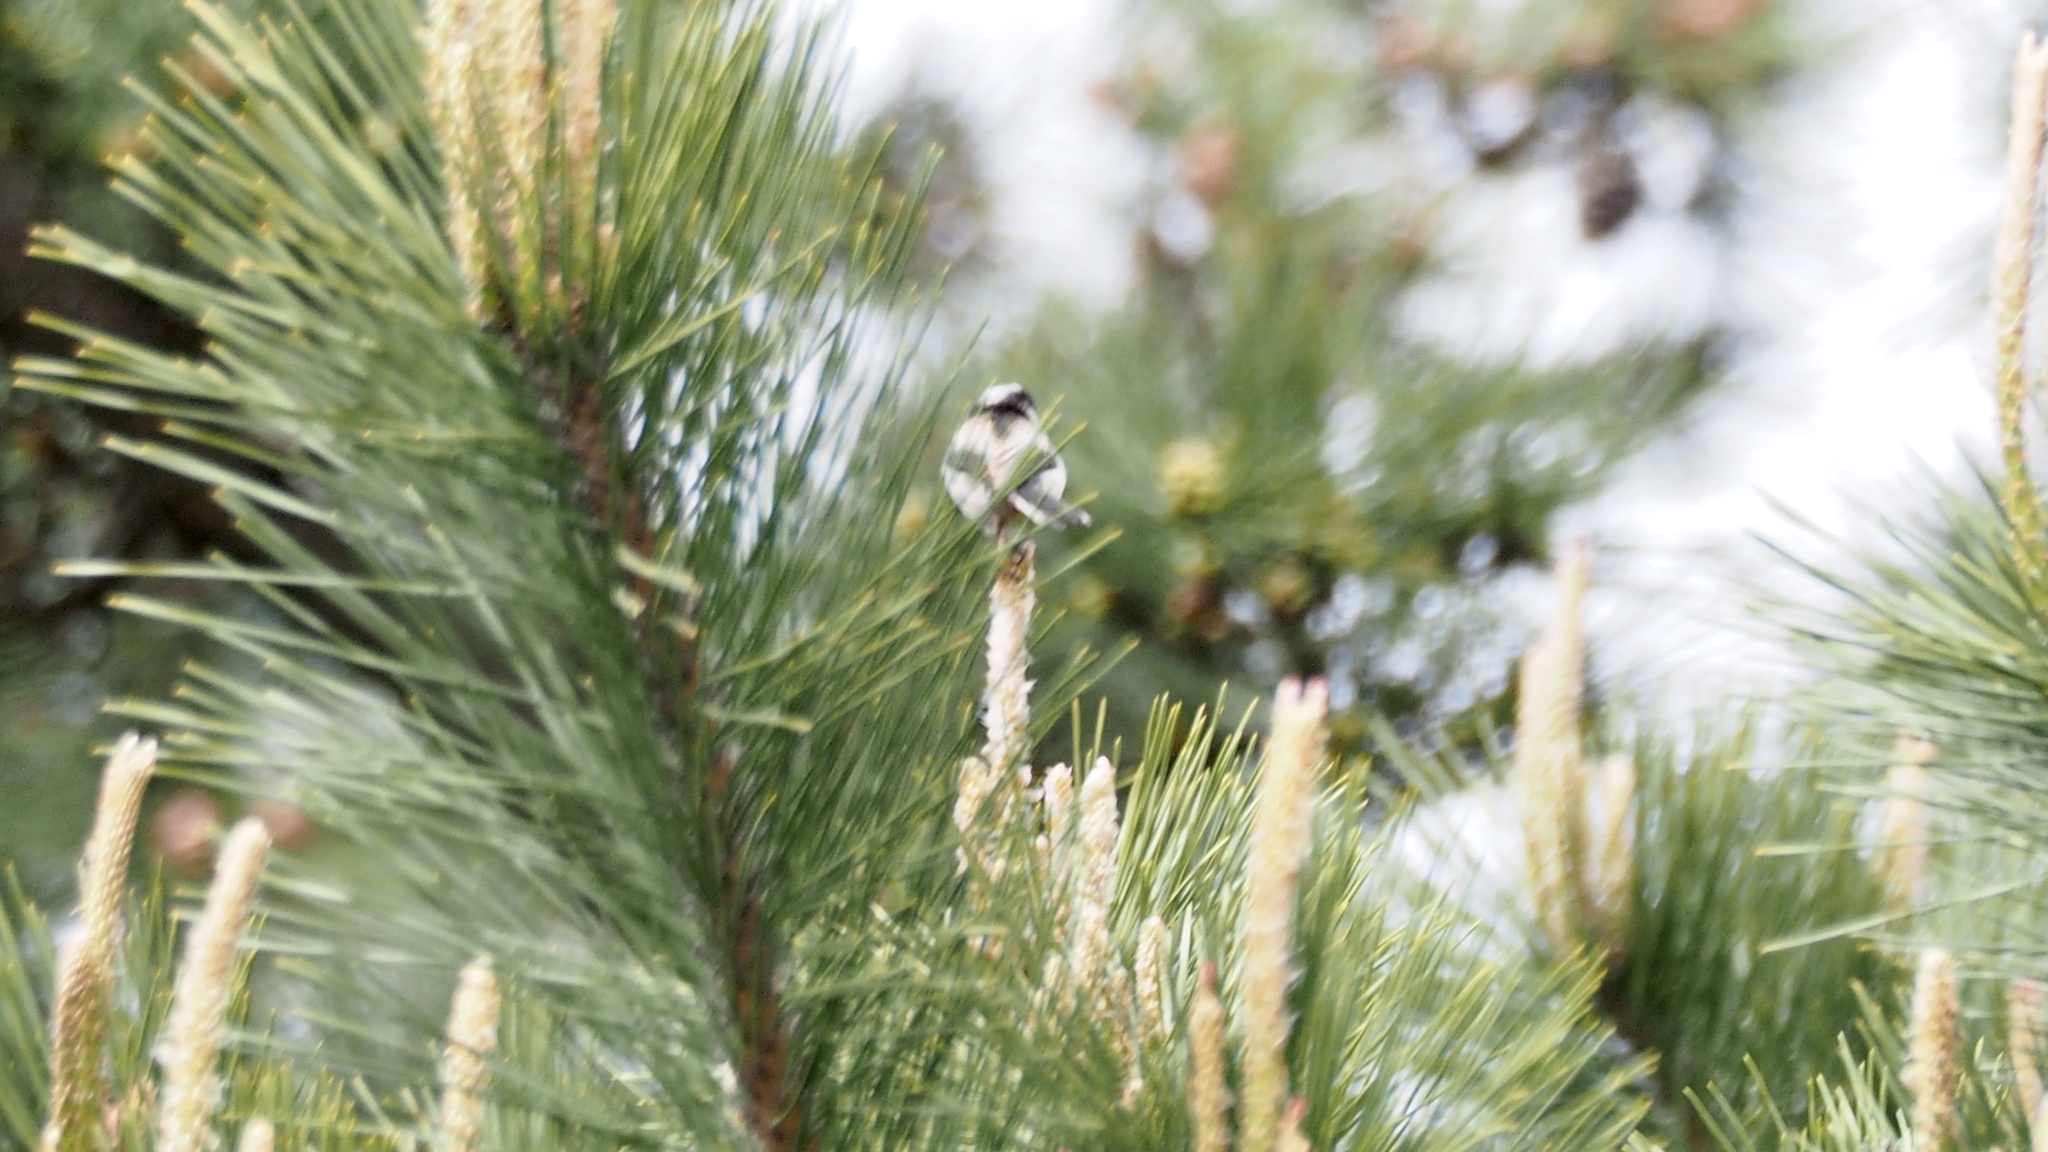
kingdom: Animalia
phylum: Chordata
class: Aves
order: Passeriformes
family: Aegithalidae
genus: Aegithalos
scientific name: Aegithalos caudatus
